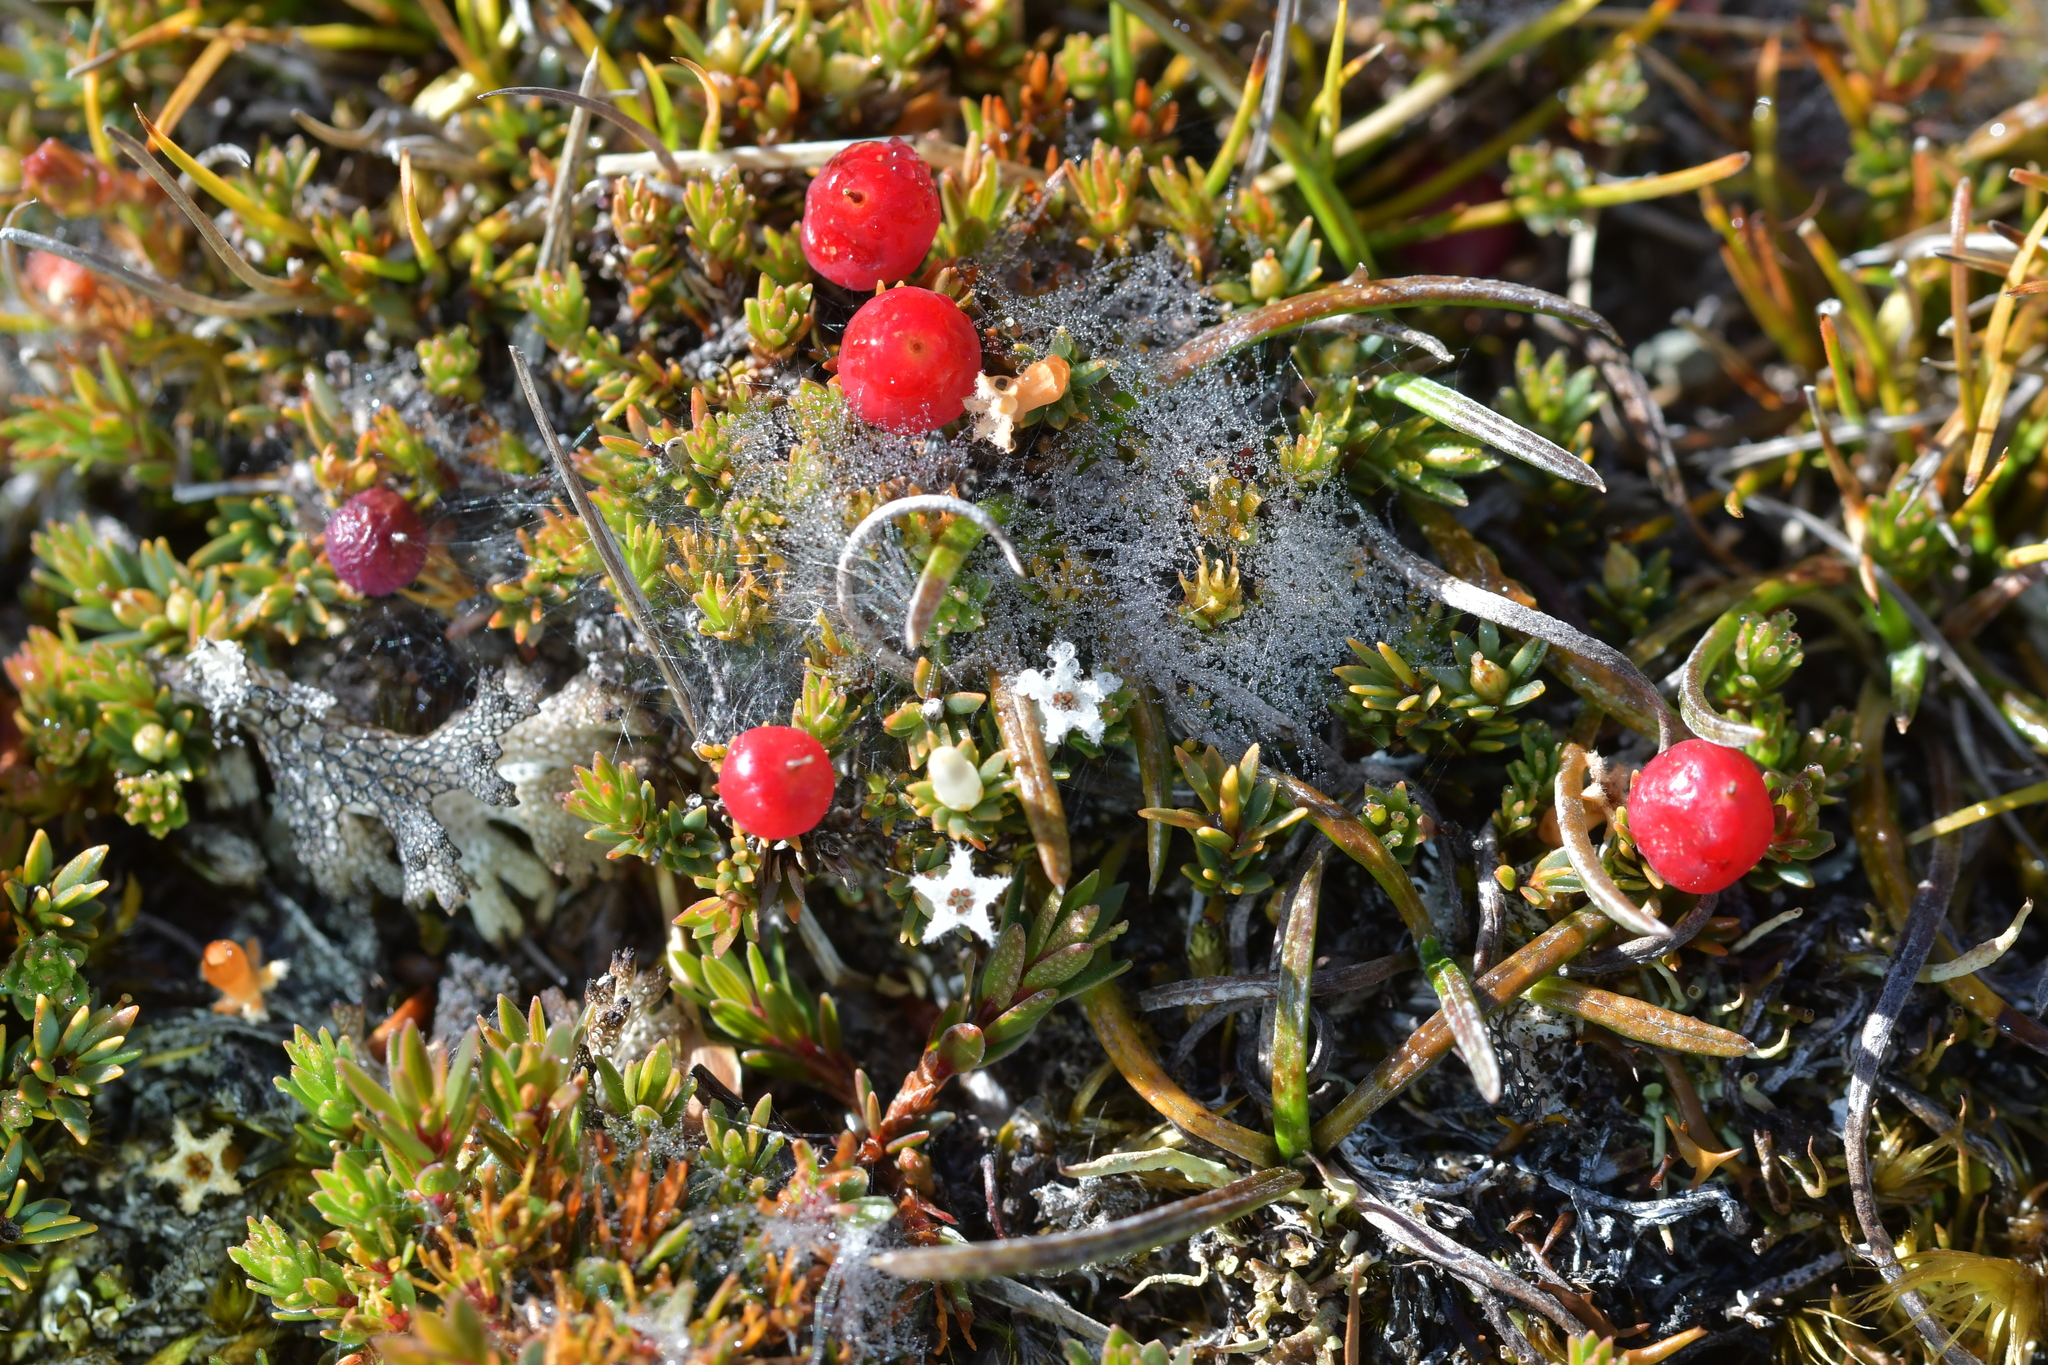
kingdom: Plantae
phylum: Tracheophyta
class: Magnoliopsida
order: Ericales
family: Ericaceae
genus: Pentachondra
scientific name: Pentachondra pumila
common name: Carpet-heath
